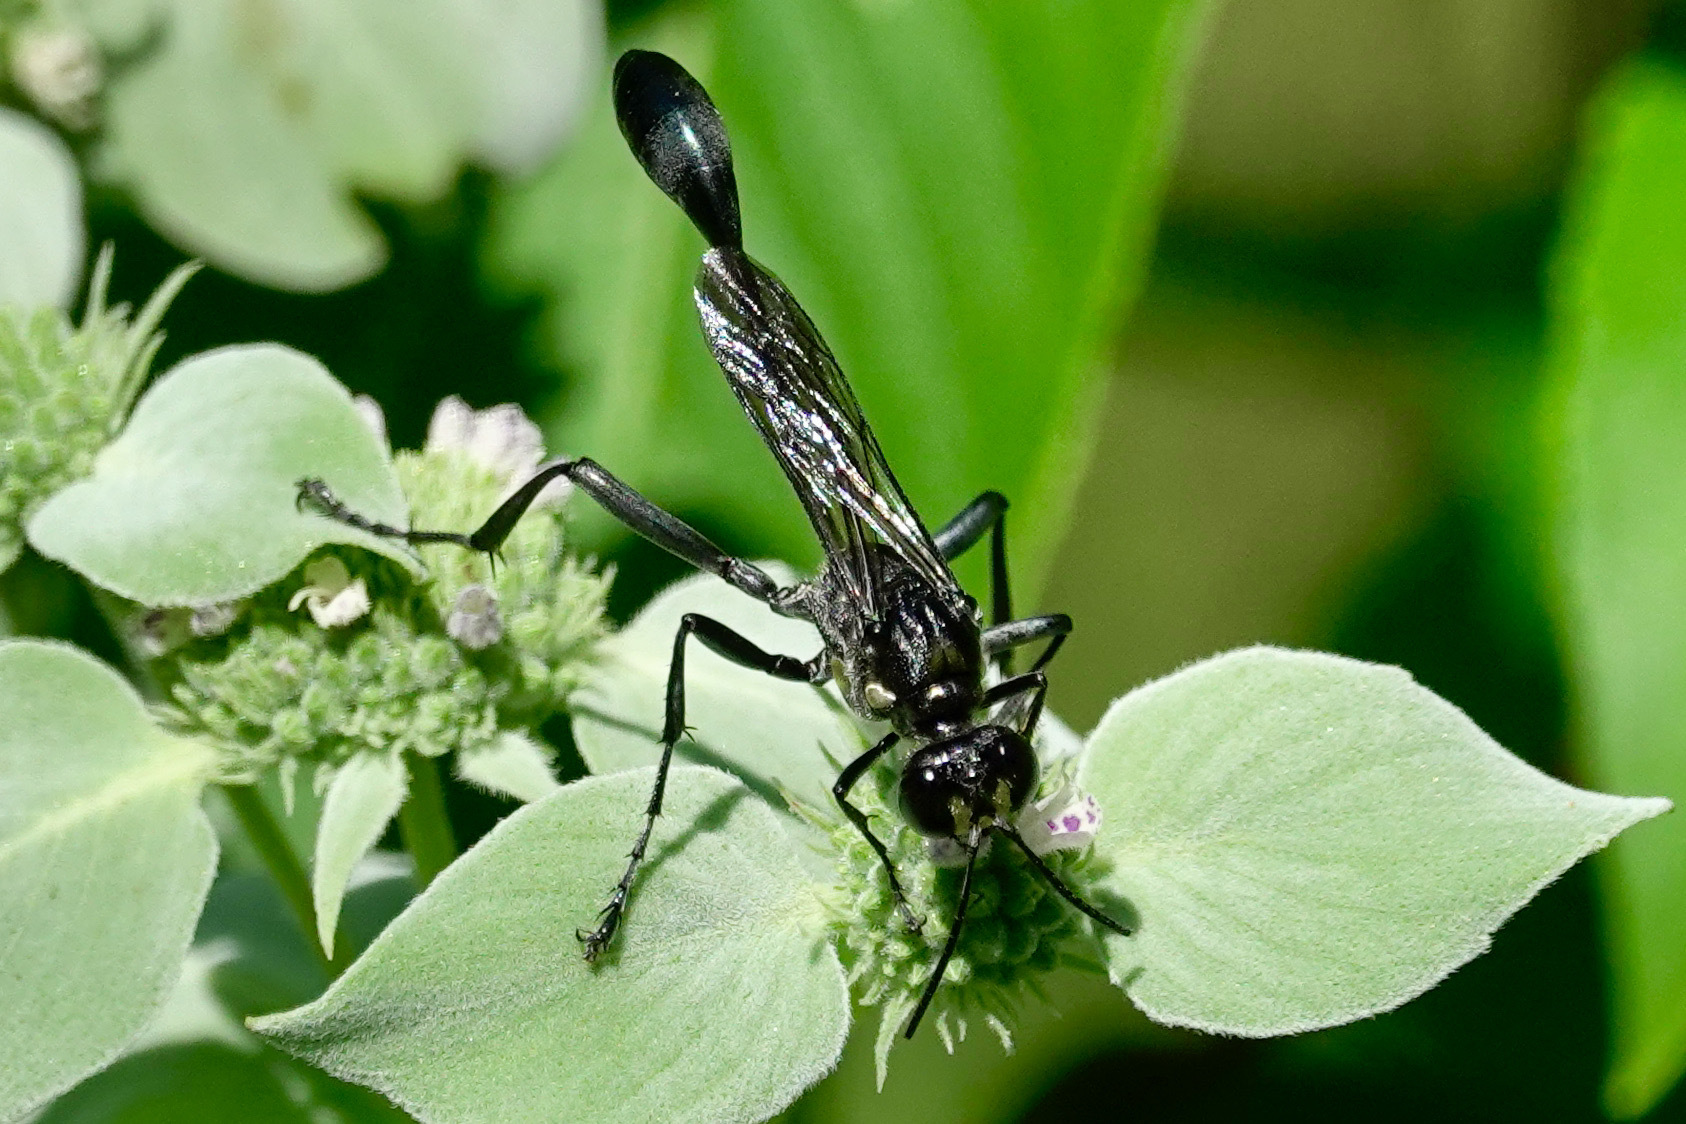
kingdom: Animalia
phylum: Arthropoda
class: Insecta
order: Hymenoptera
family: Sphecidae
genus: Eremnophila
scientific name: Eremnophila aureonotata
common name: Gold-marked thread-waisted wasp
